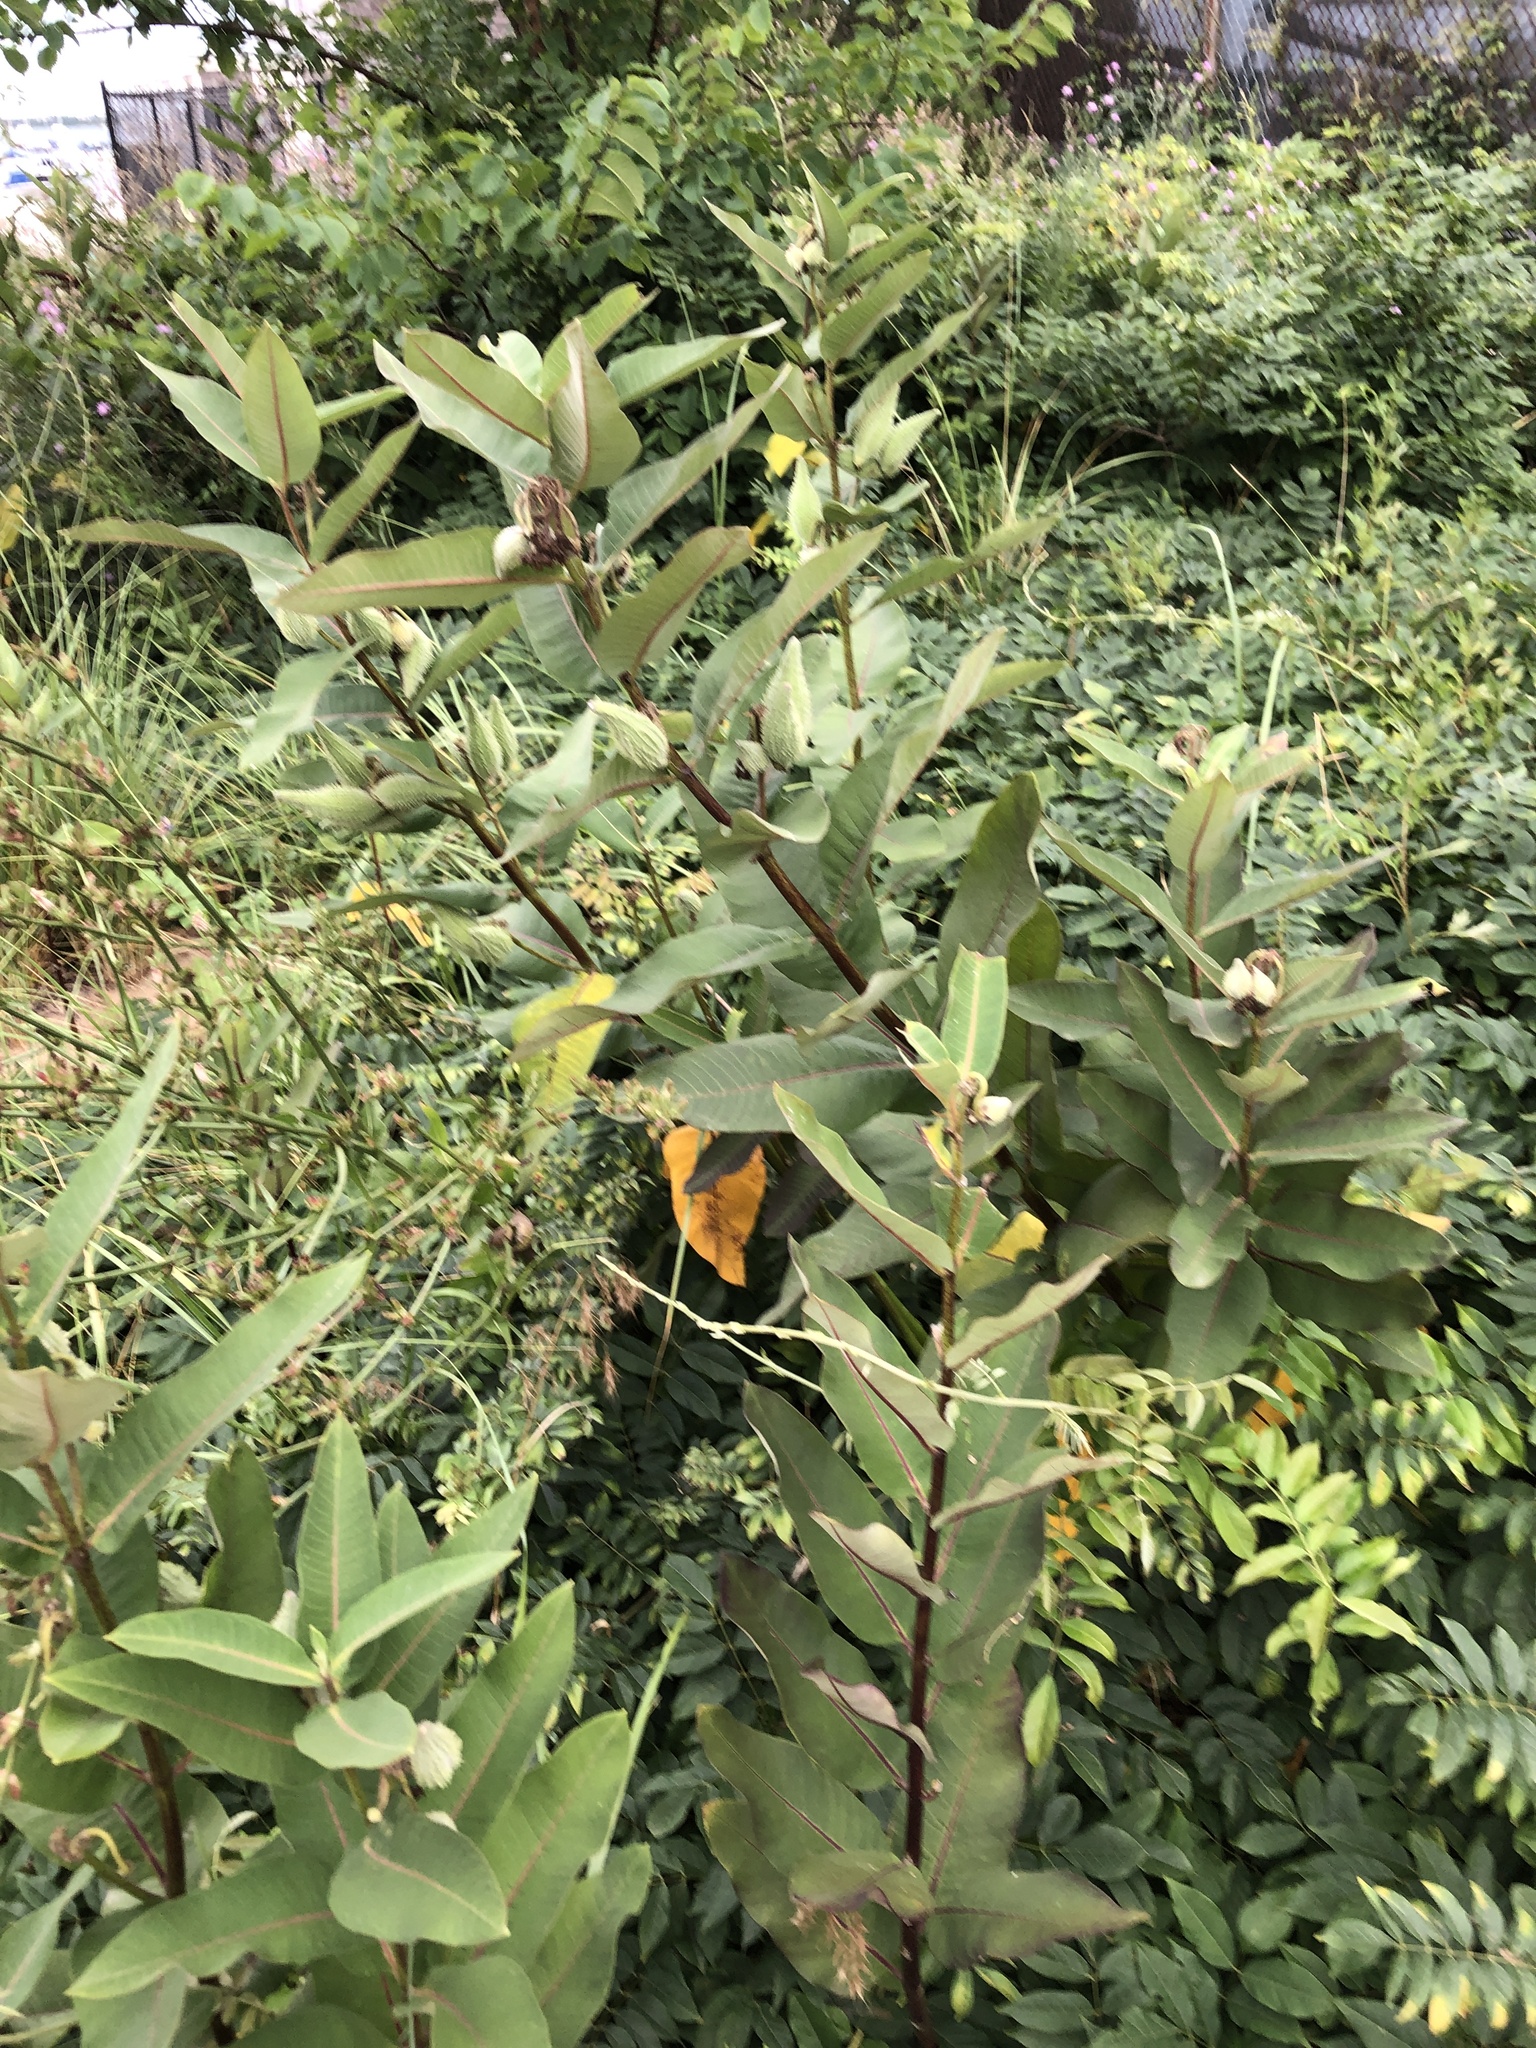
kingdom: Plantae
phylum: Tracheophyta
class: Magnoliopsida
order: Gentianales
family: Apocynaceae
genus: Asclepias
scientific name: Asclepias syriaca
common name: Common milkweed
